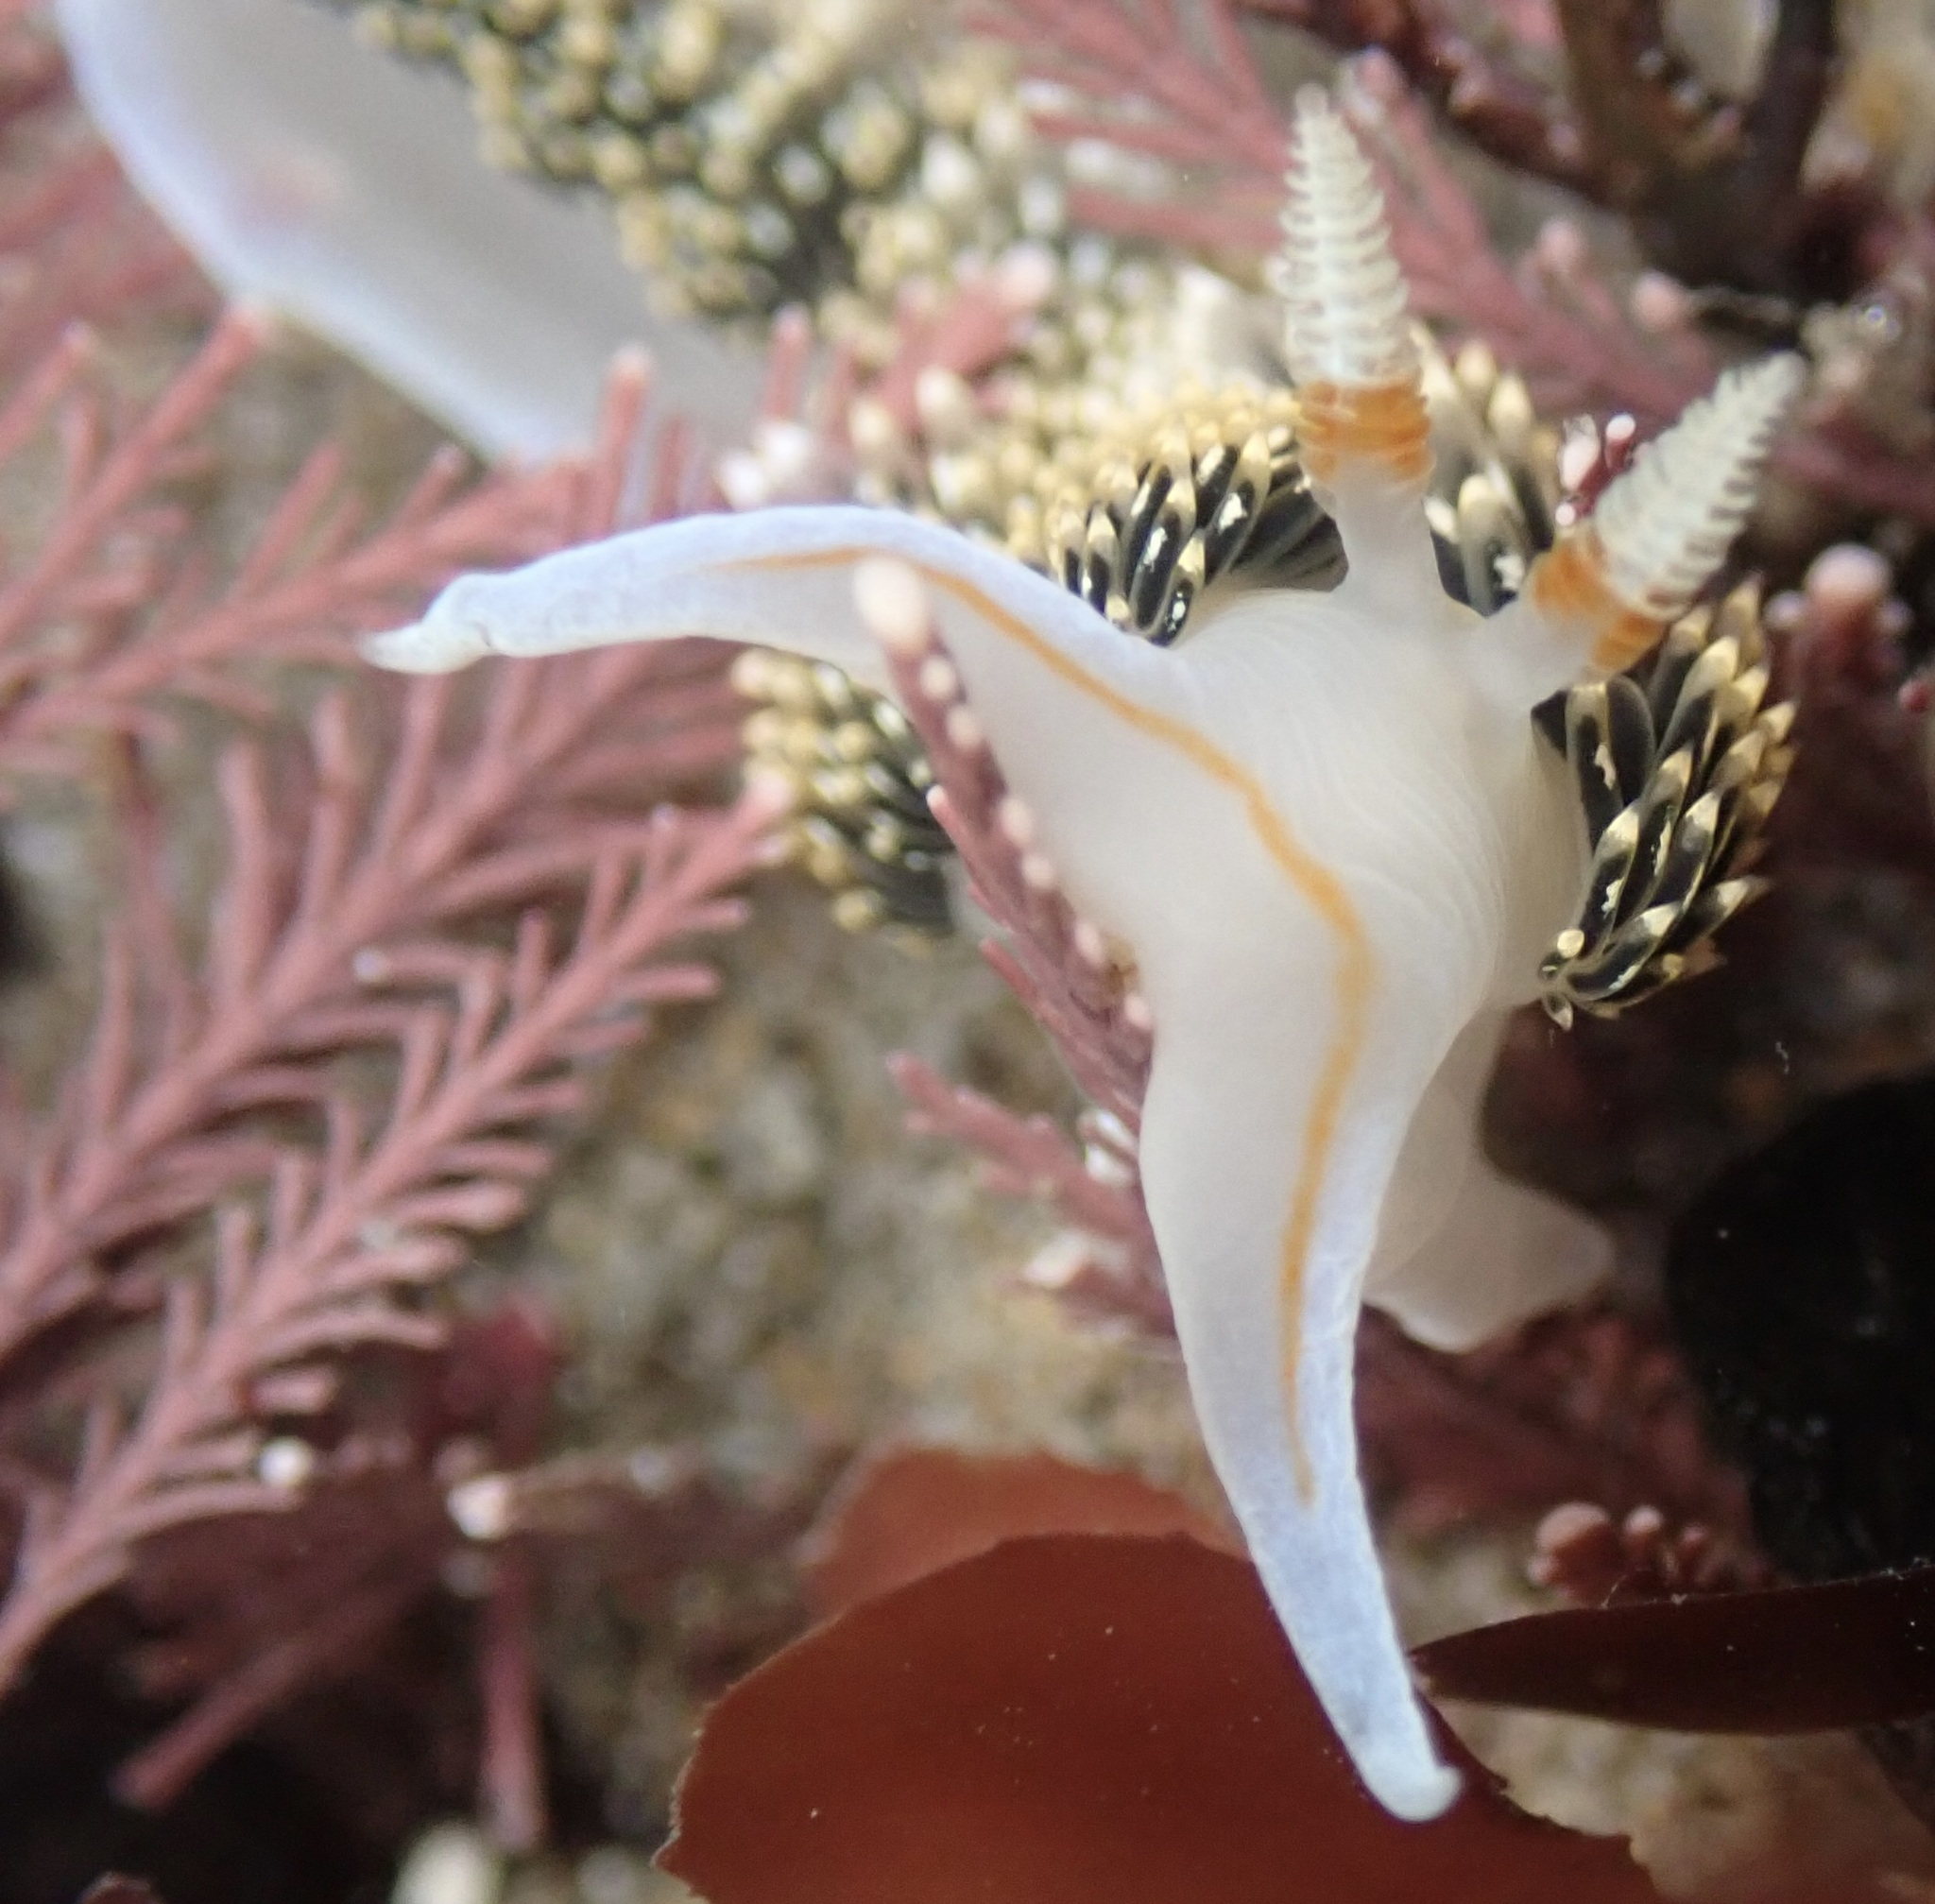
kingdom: Animalia
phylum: Mollusca
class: Gastropoda
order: Nudibranchia
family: Facelinidae
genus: Phidiana
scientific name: Phidiana hiltoni
